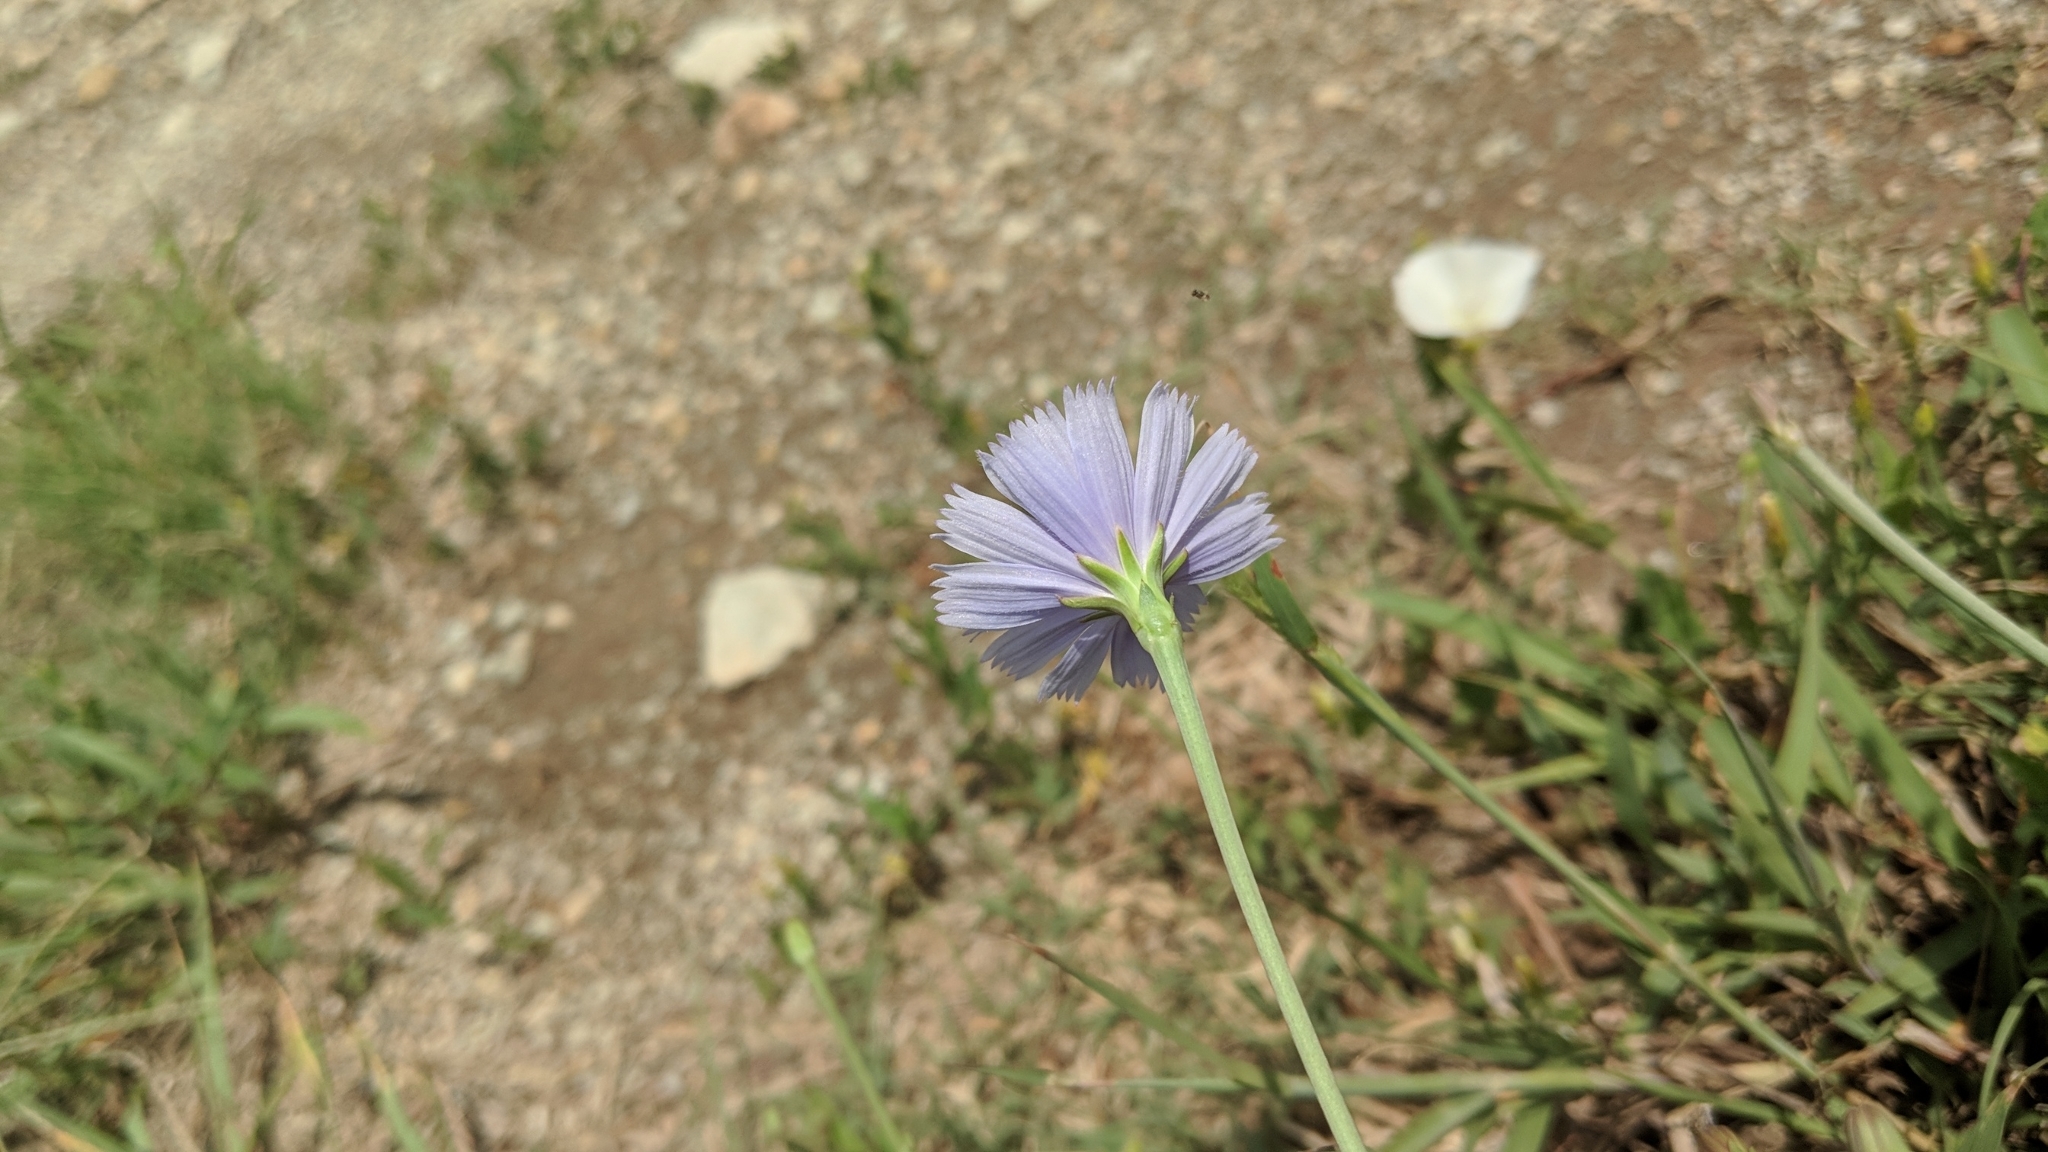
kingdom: Plantae
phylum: Tracheophyta
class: Magnoliopsida
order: Asterales
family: Asteraceae
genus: Cichorium
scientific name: Cichorium intybus
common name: Chicory
